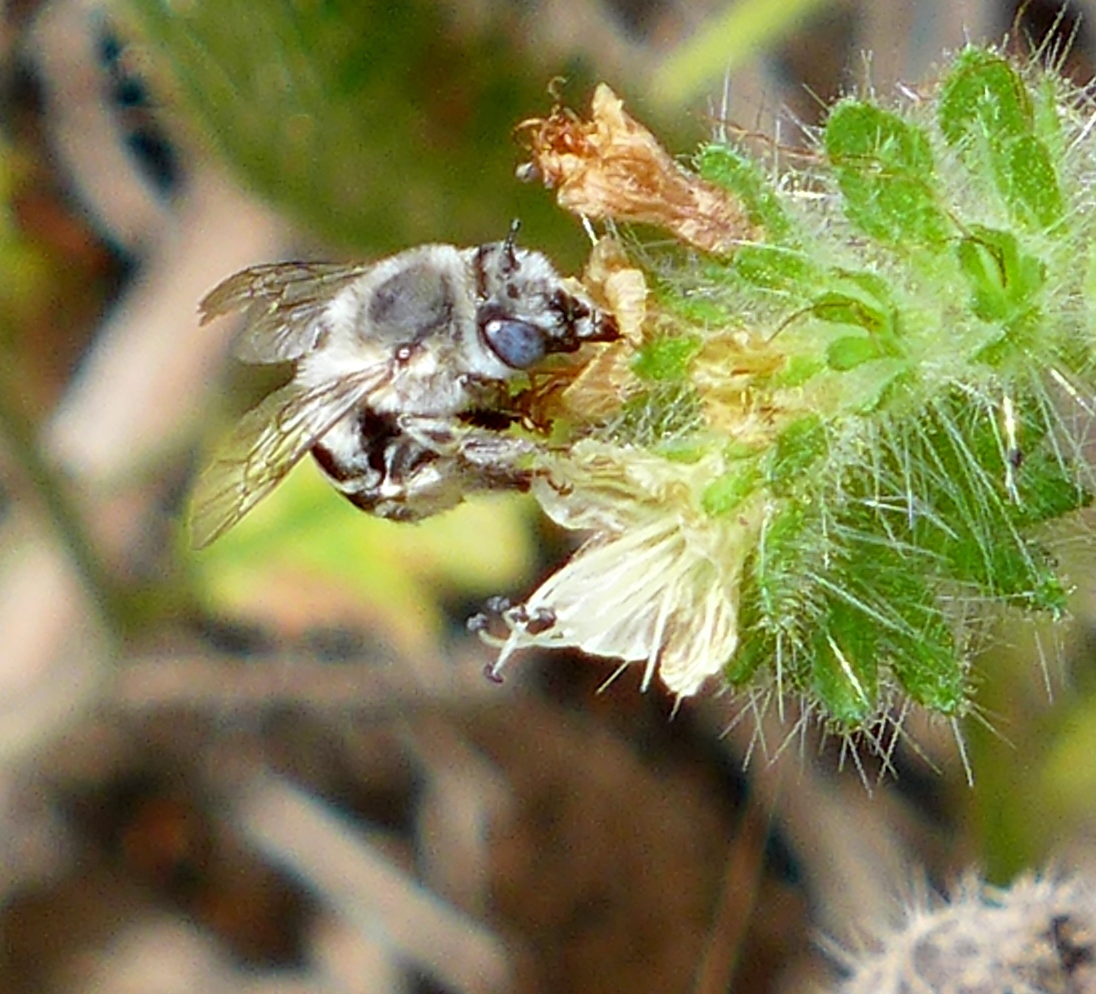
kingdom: Animalia
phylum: Arthropoda
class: Insecta
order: Hymenoptera
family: Apidae
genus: Anthophora
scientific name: Anthophora urbana
